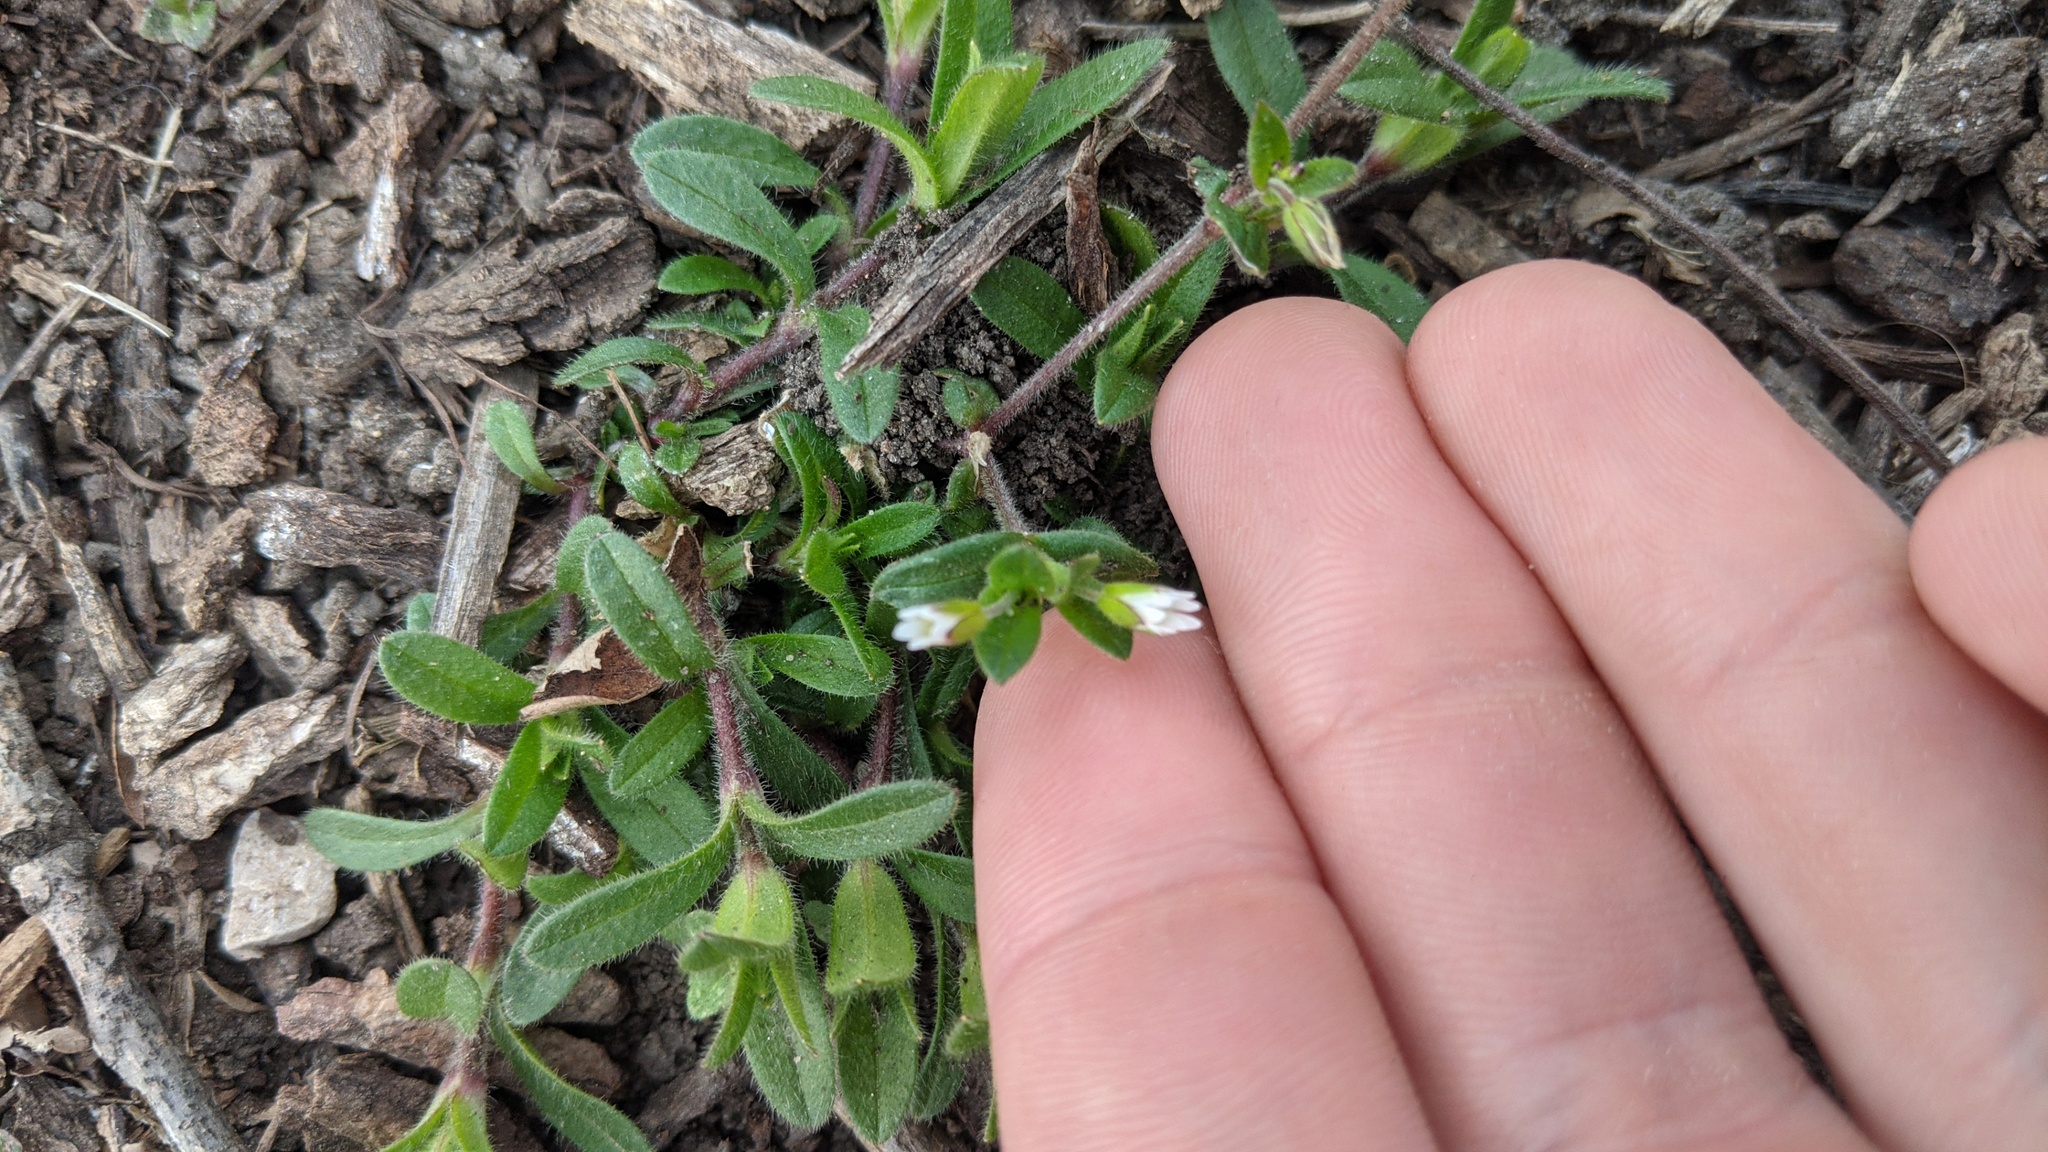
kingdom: Plantae
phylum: Tracheophyta
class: Magnoliopsida
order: Caryophyllales
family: Caryophyllaceae
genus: Cerastium
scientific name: Cerastium fontanum
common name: Common mouse-ear
